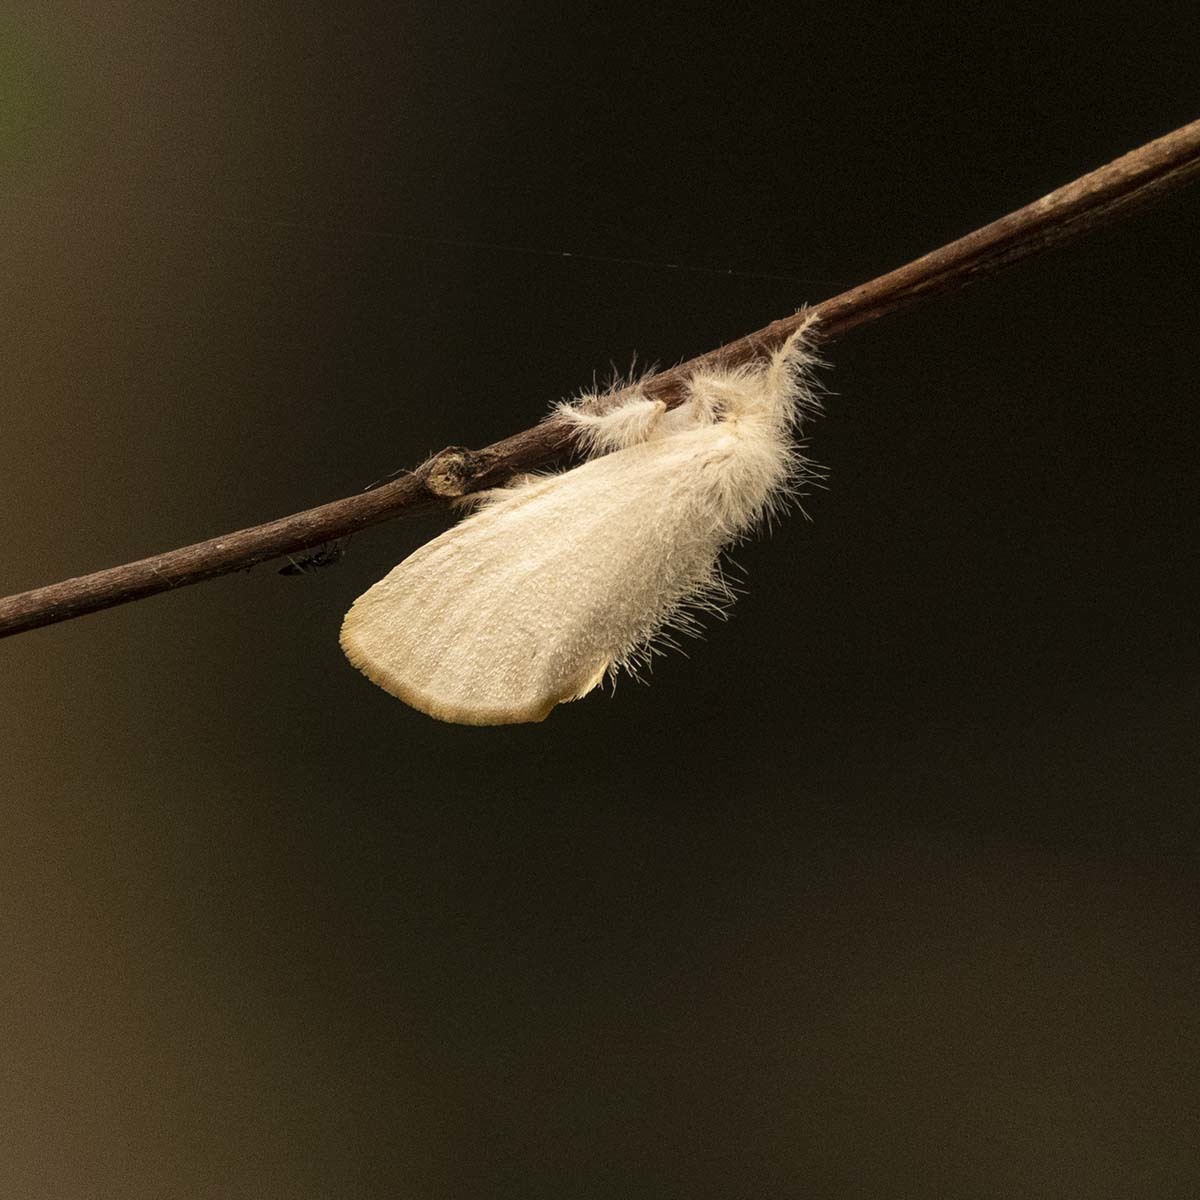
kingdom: Animalia
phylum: Arthropoda
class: Insecta
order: Lepidoptera
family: Erebidae
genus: Sphrageidus
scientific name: Sphrageidus similis
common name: Yellow-tail
